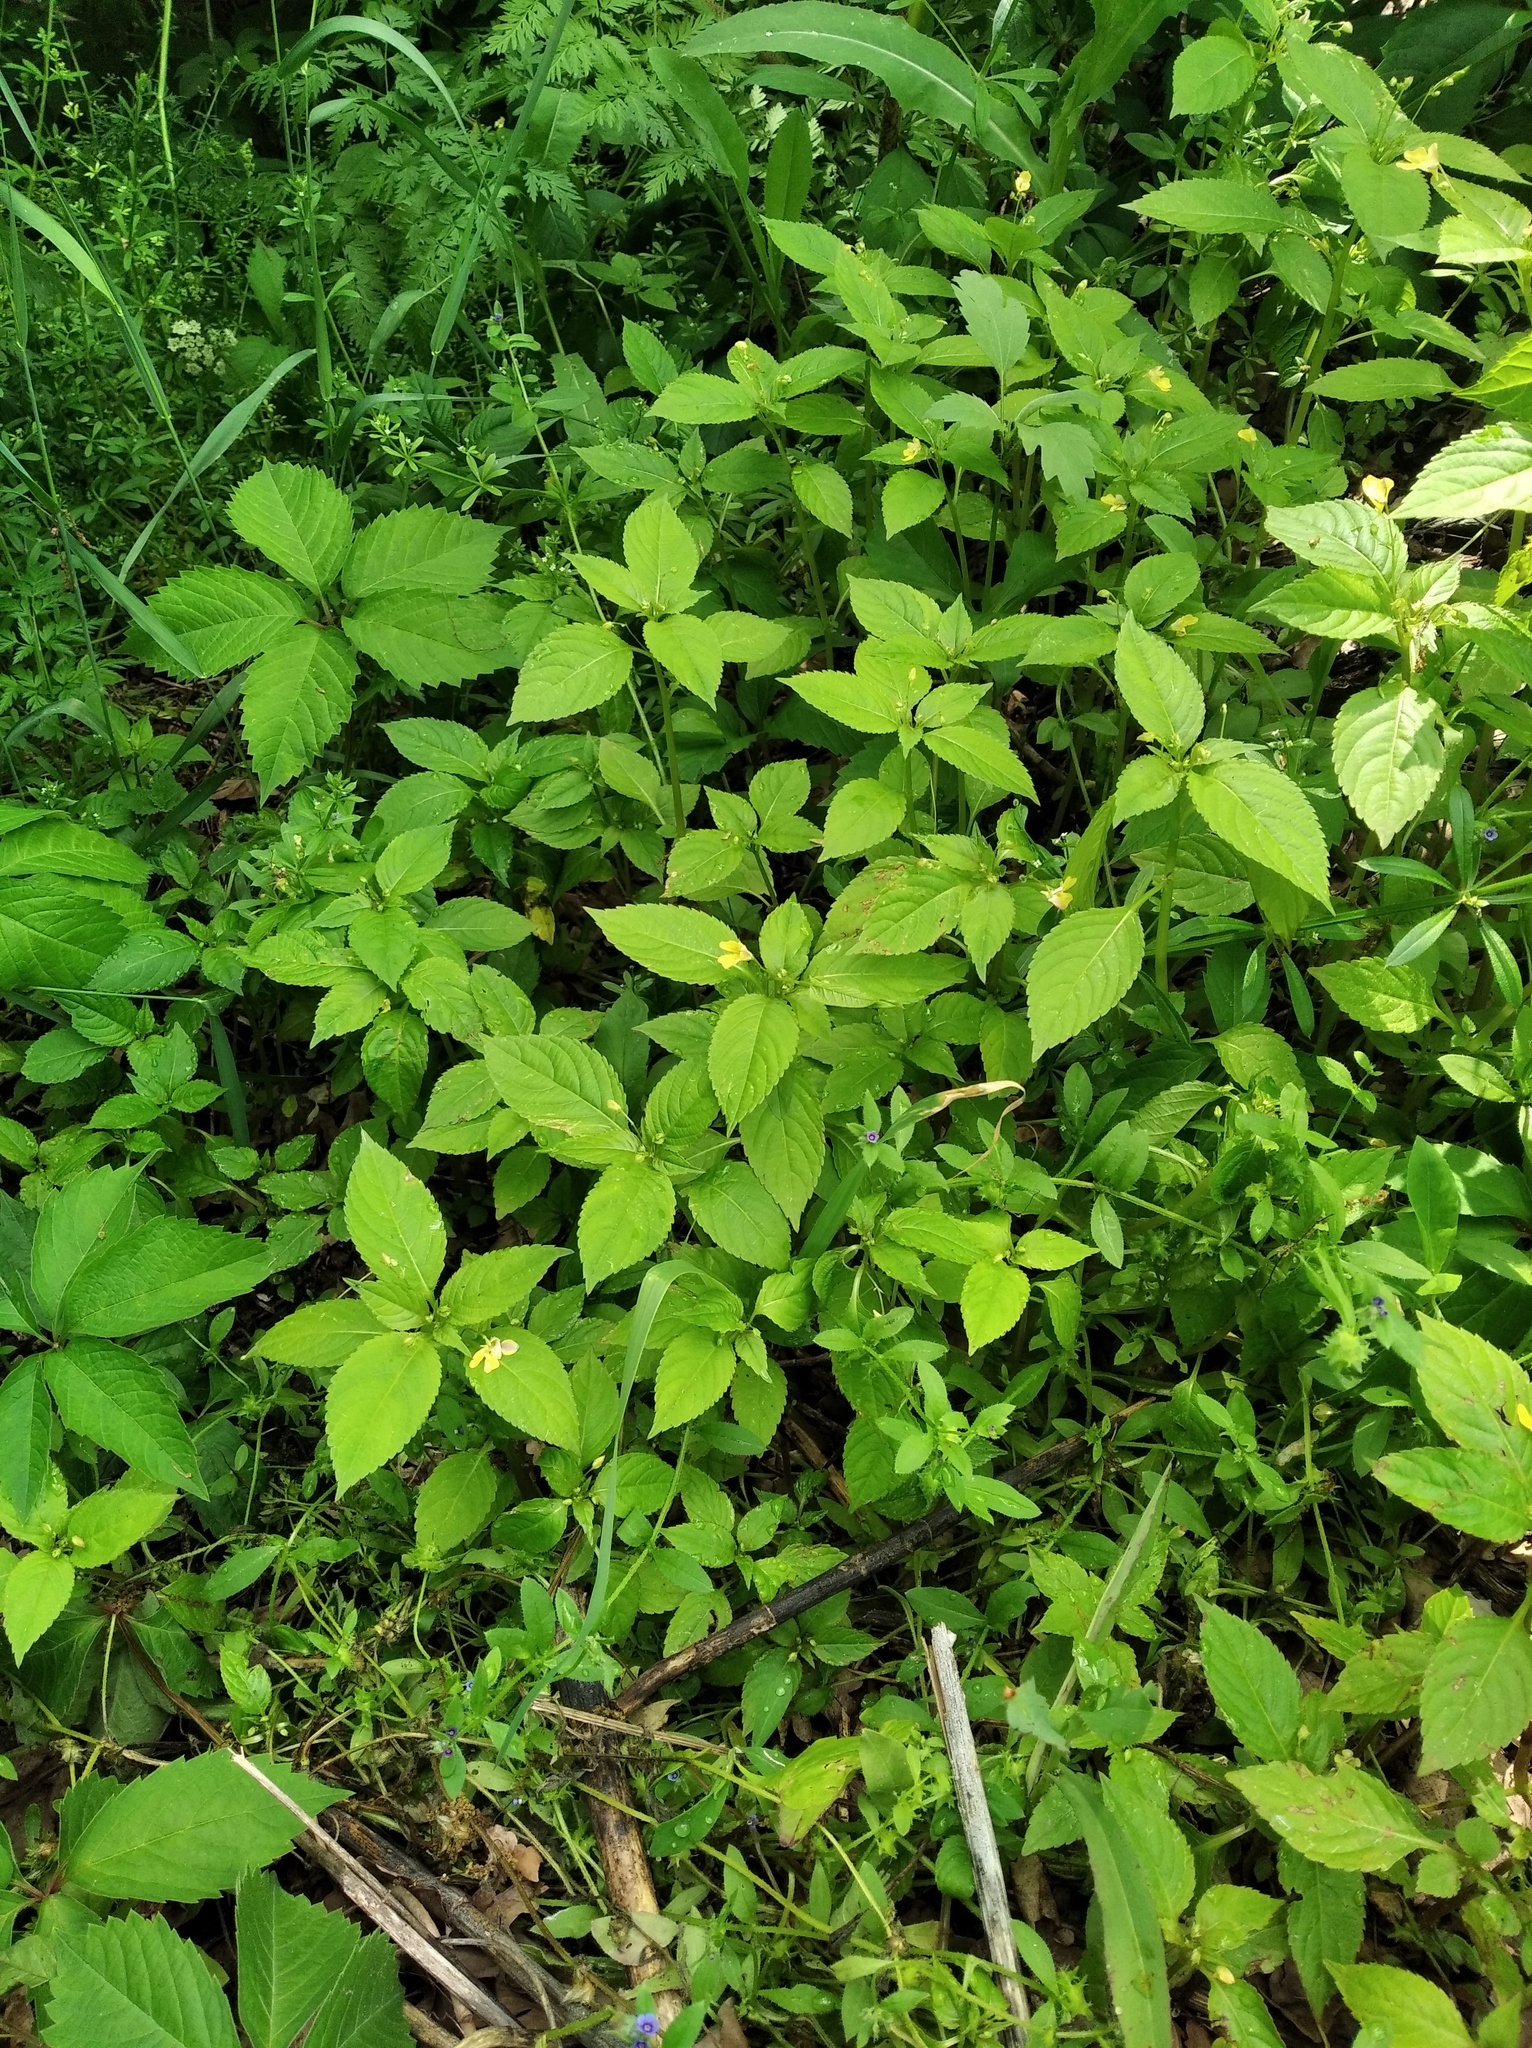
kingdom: Plantae
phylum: Tracheophyta
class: Magnoliopsida
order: Ericales
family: Balsaminaceae
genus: Impatiens
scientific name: Impatiens parviflora
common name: Small balsam
